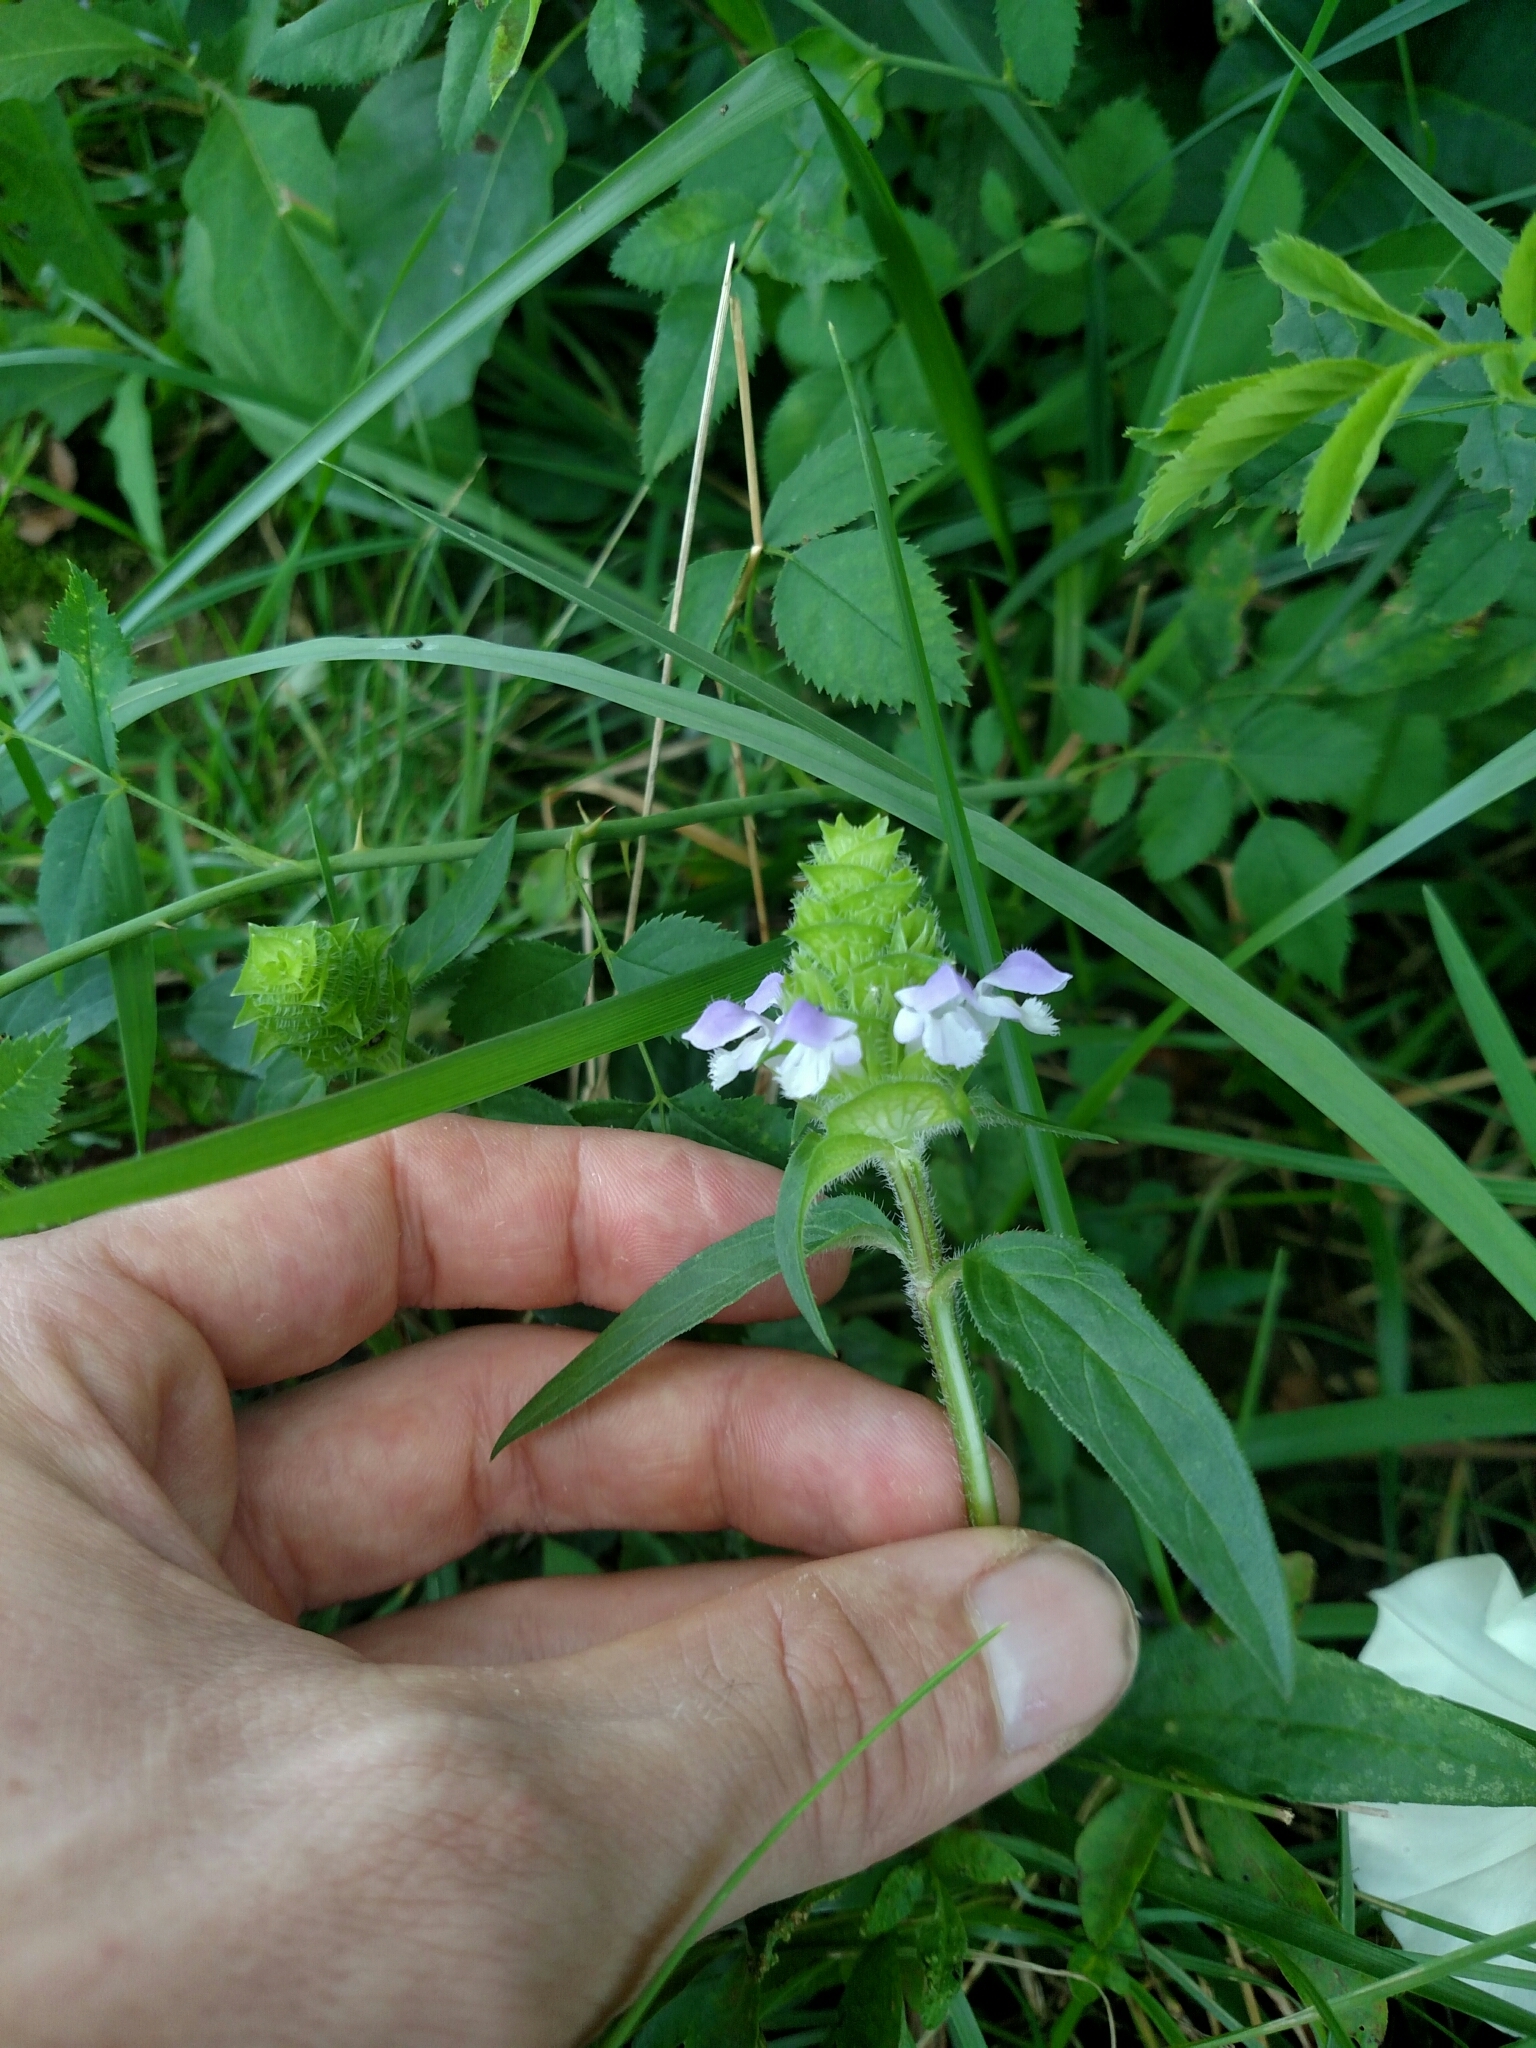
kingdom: Plantae
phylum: Tracheophyta
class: Magnoliopsida
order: Lamiales
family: Lamiaceae
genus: Prunella
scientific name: Prunella vulgaris
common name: Heal-all
